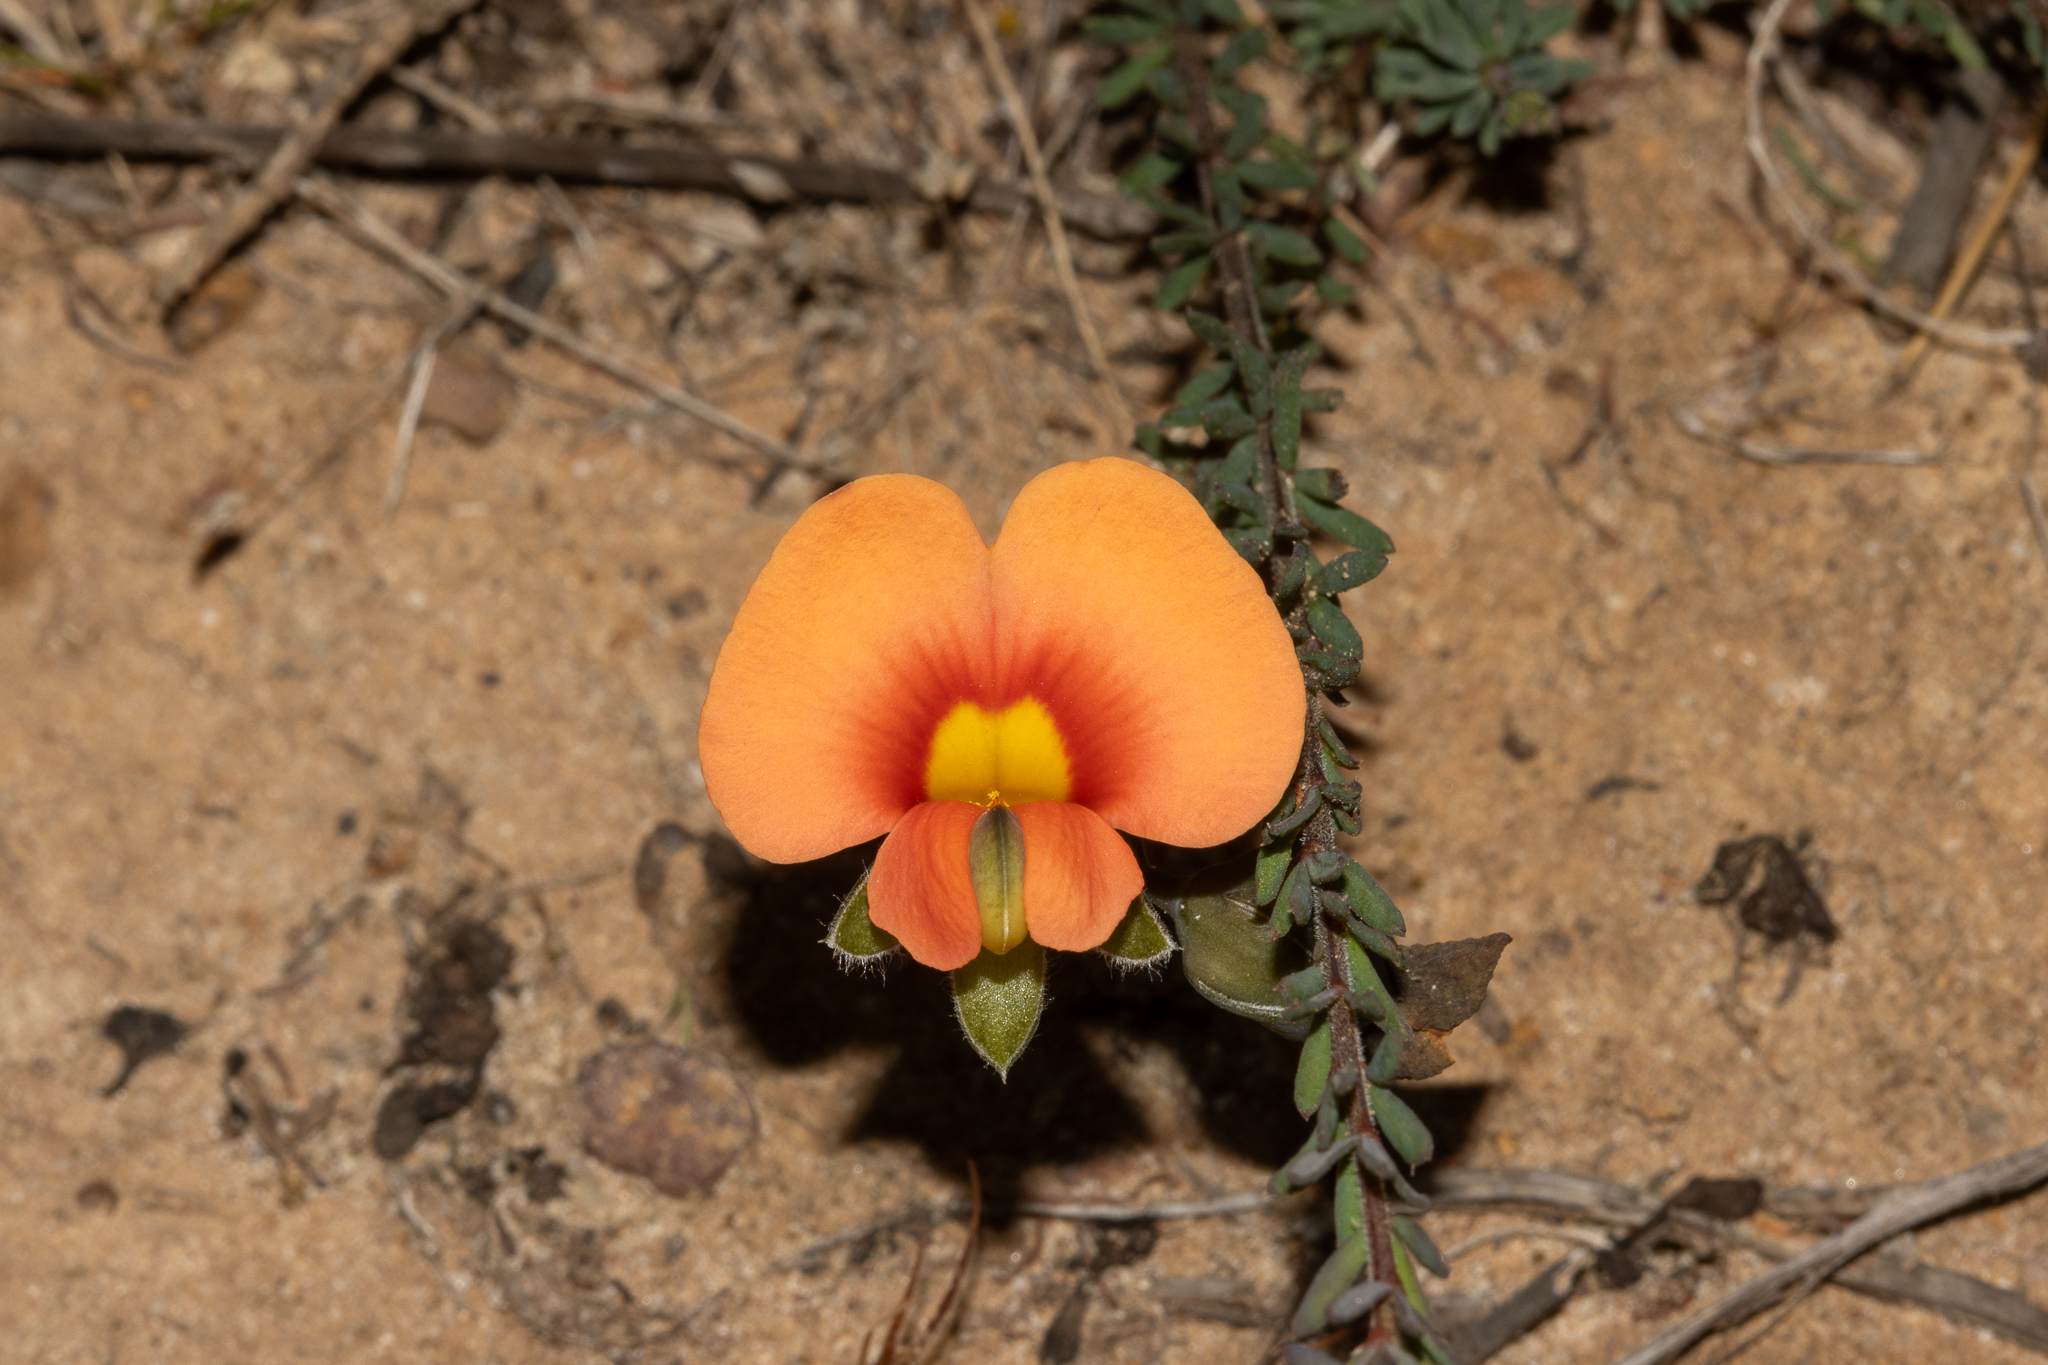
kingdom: Plantae
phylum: Tracheophyta
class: Magnoliopsida
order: Fabales
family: Fabaceae
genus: Gompholobium
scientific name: Gompholobium ecostatum
